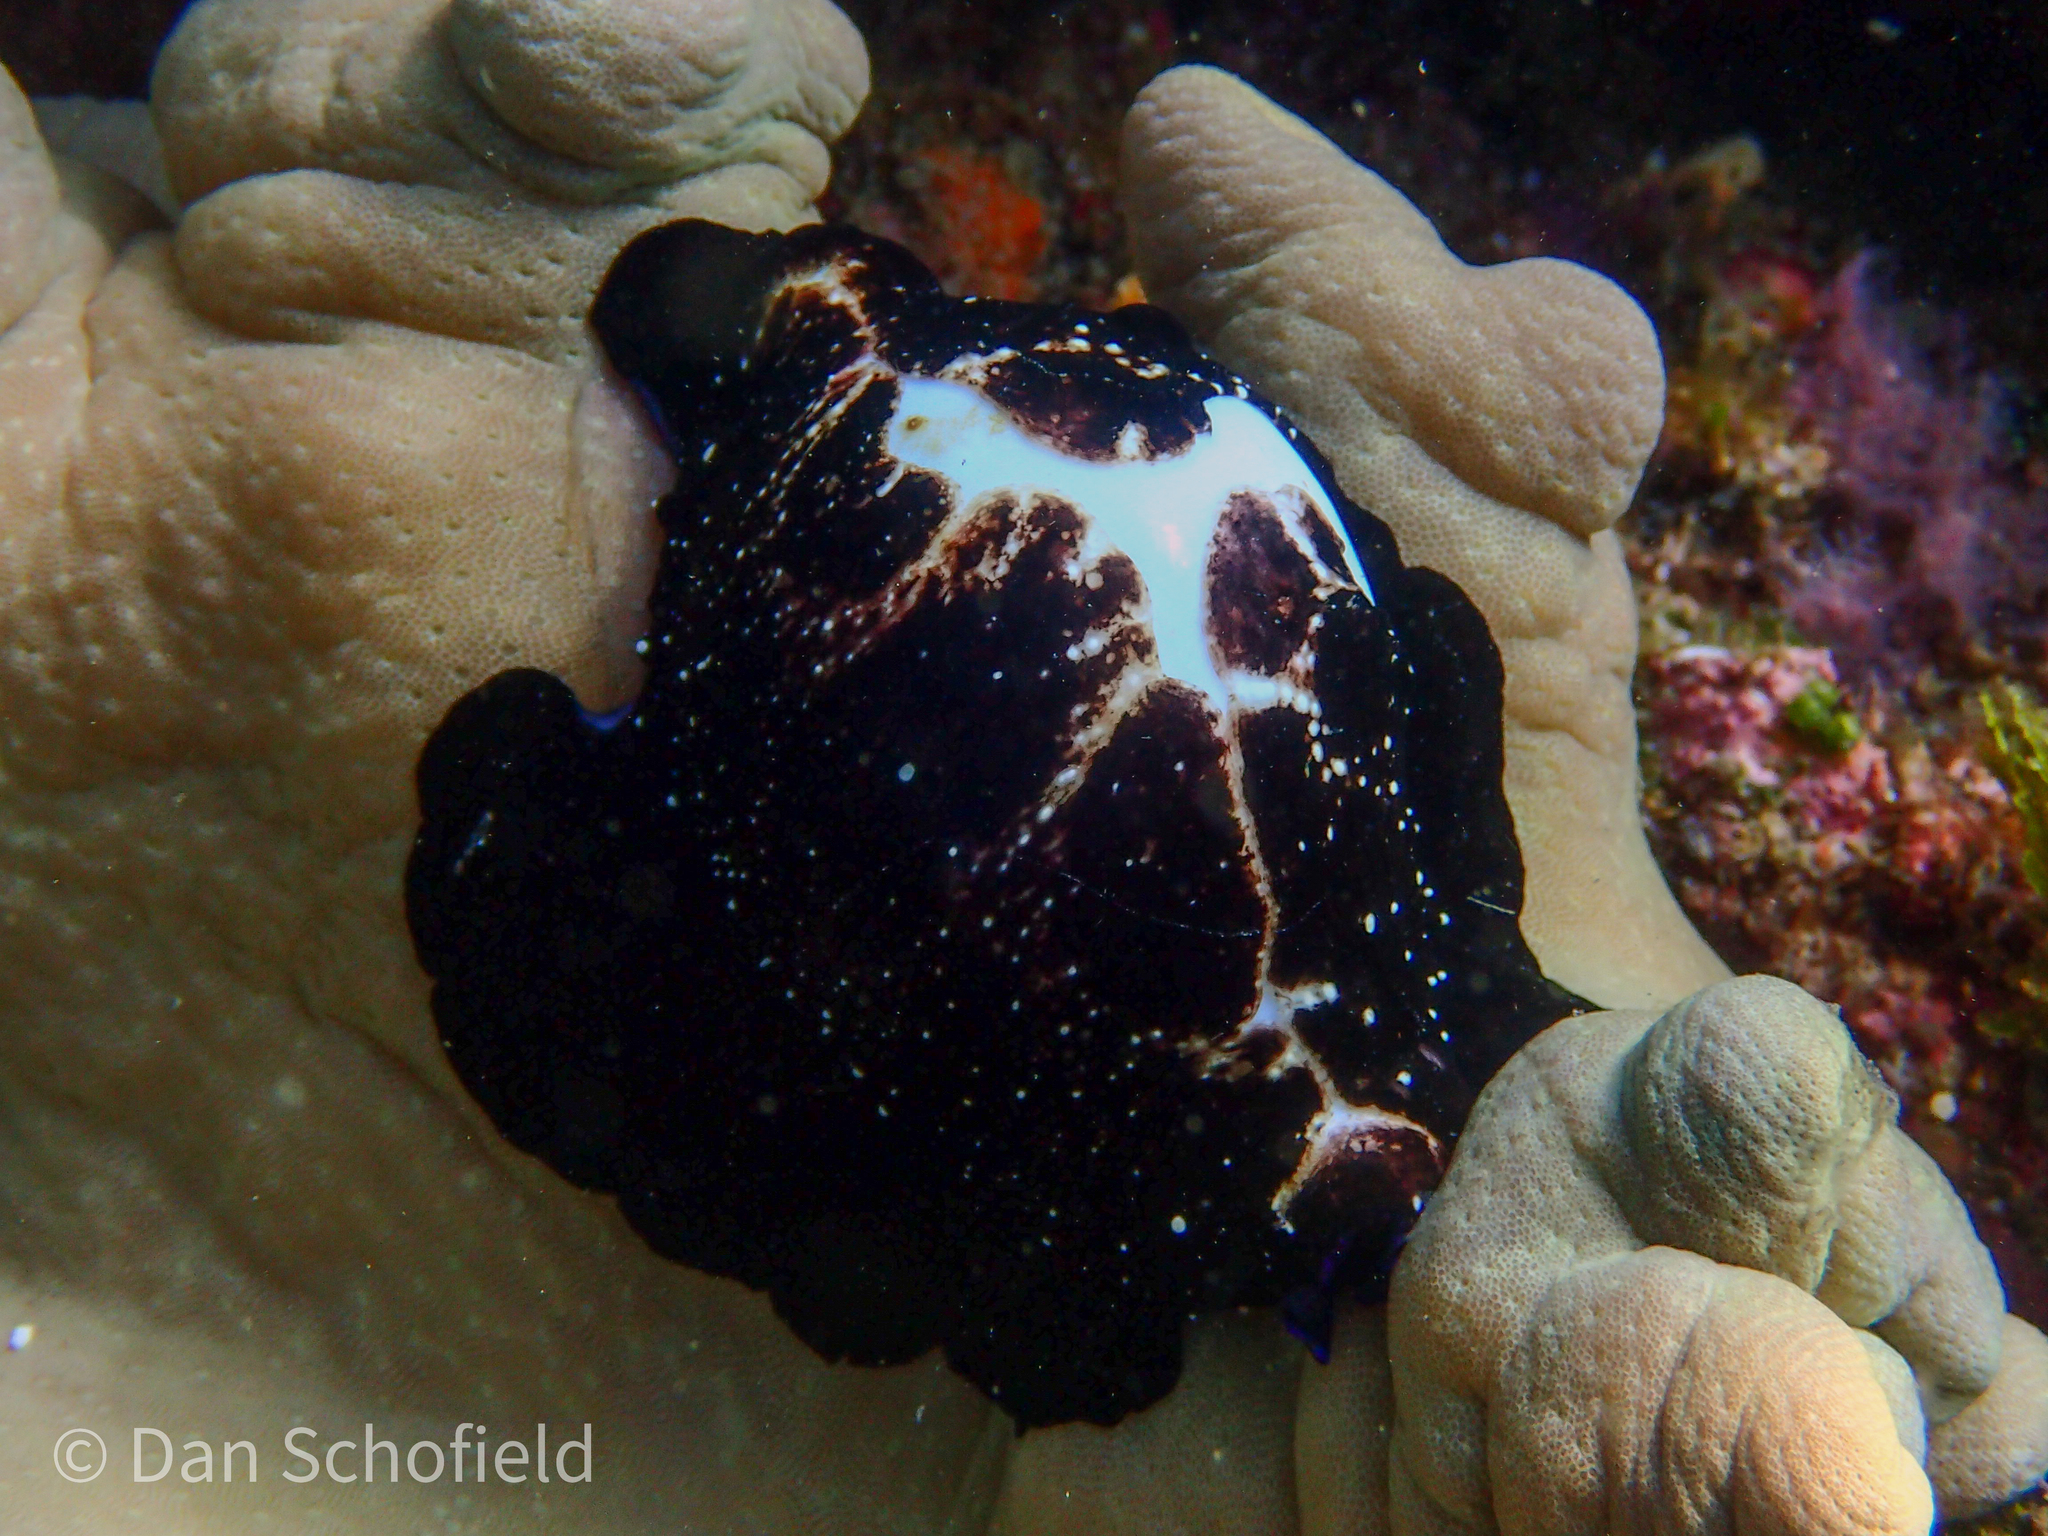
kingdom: Animalia
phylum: Mollusca
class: Gastropoda
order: Littorinimorpha
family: Ovulidae
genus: Ovula
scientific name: Ovula ovum
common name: Common egg cowrie
